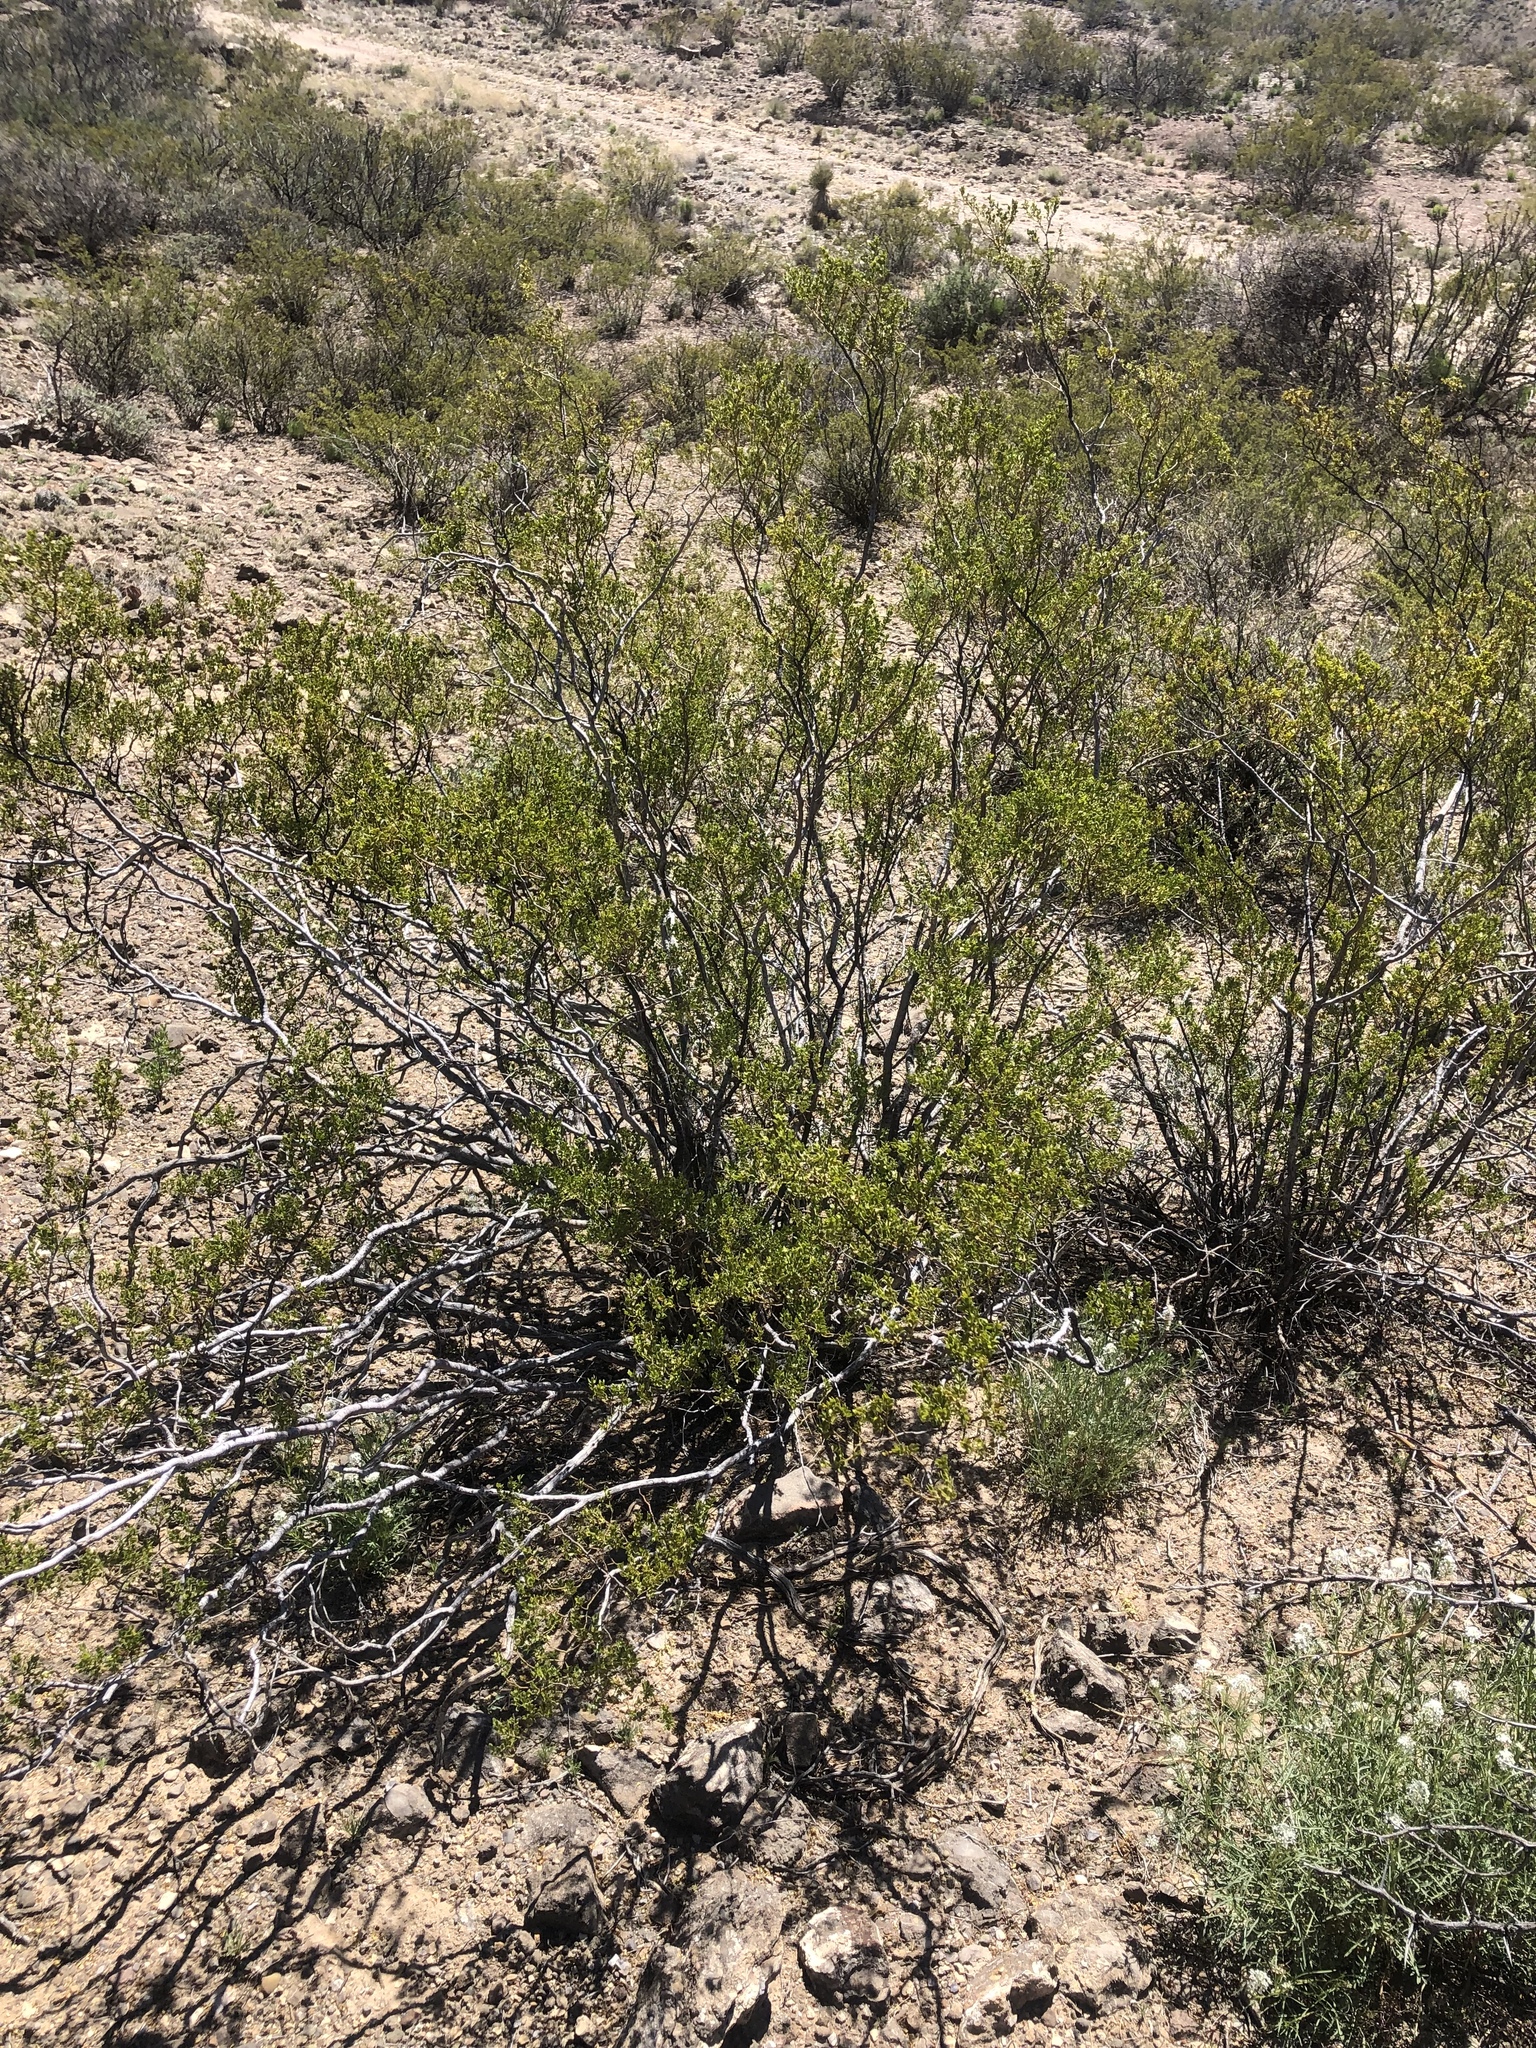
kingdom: Plantae
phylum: Tracheophyta
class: Magnoliopsida
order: Zygophyllales
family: Zygophyllaceae
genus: Larrea
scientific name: Larrea tridentata
